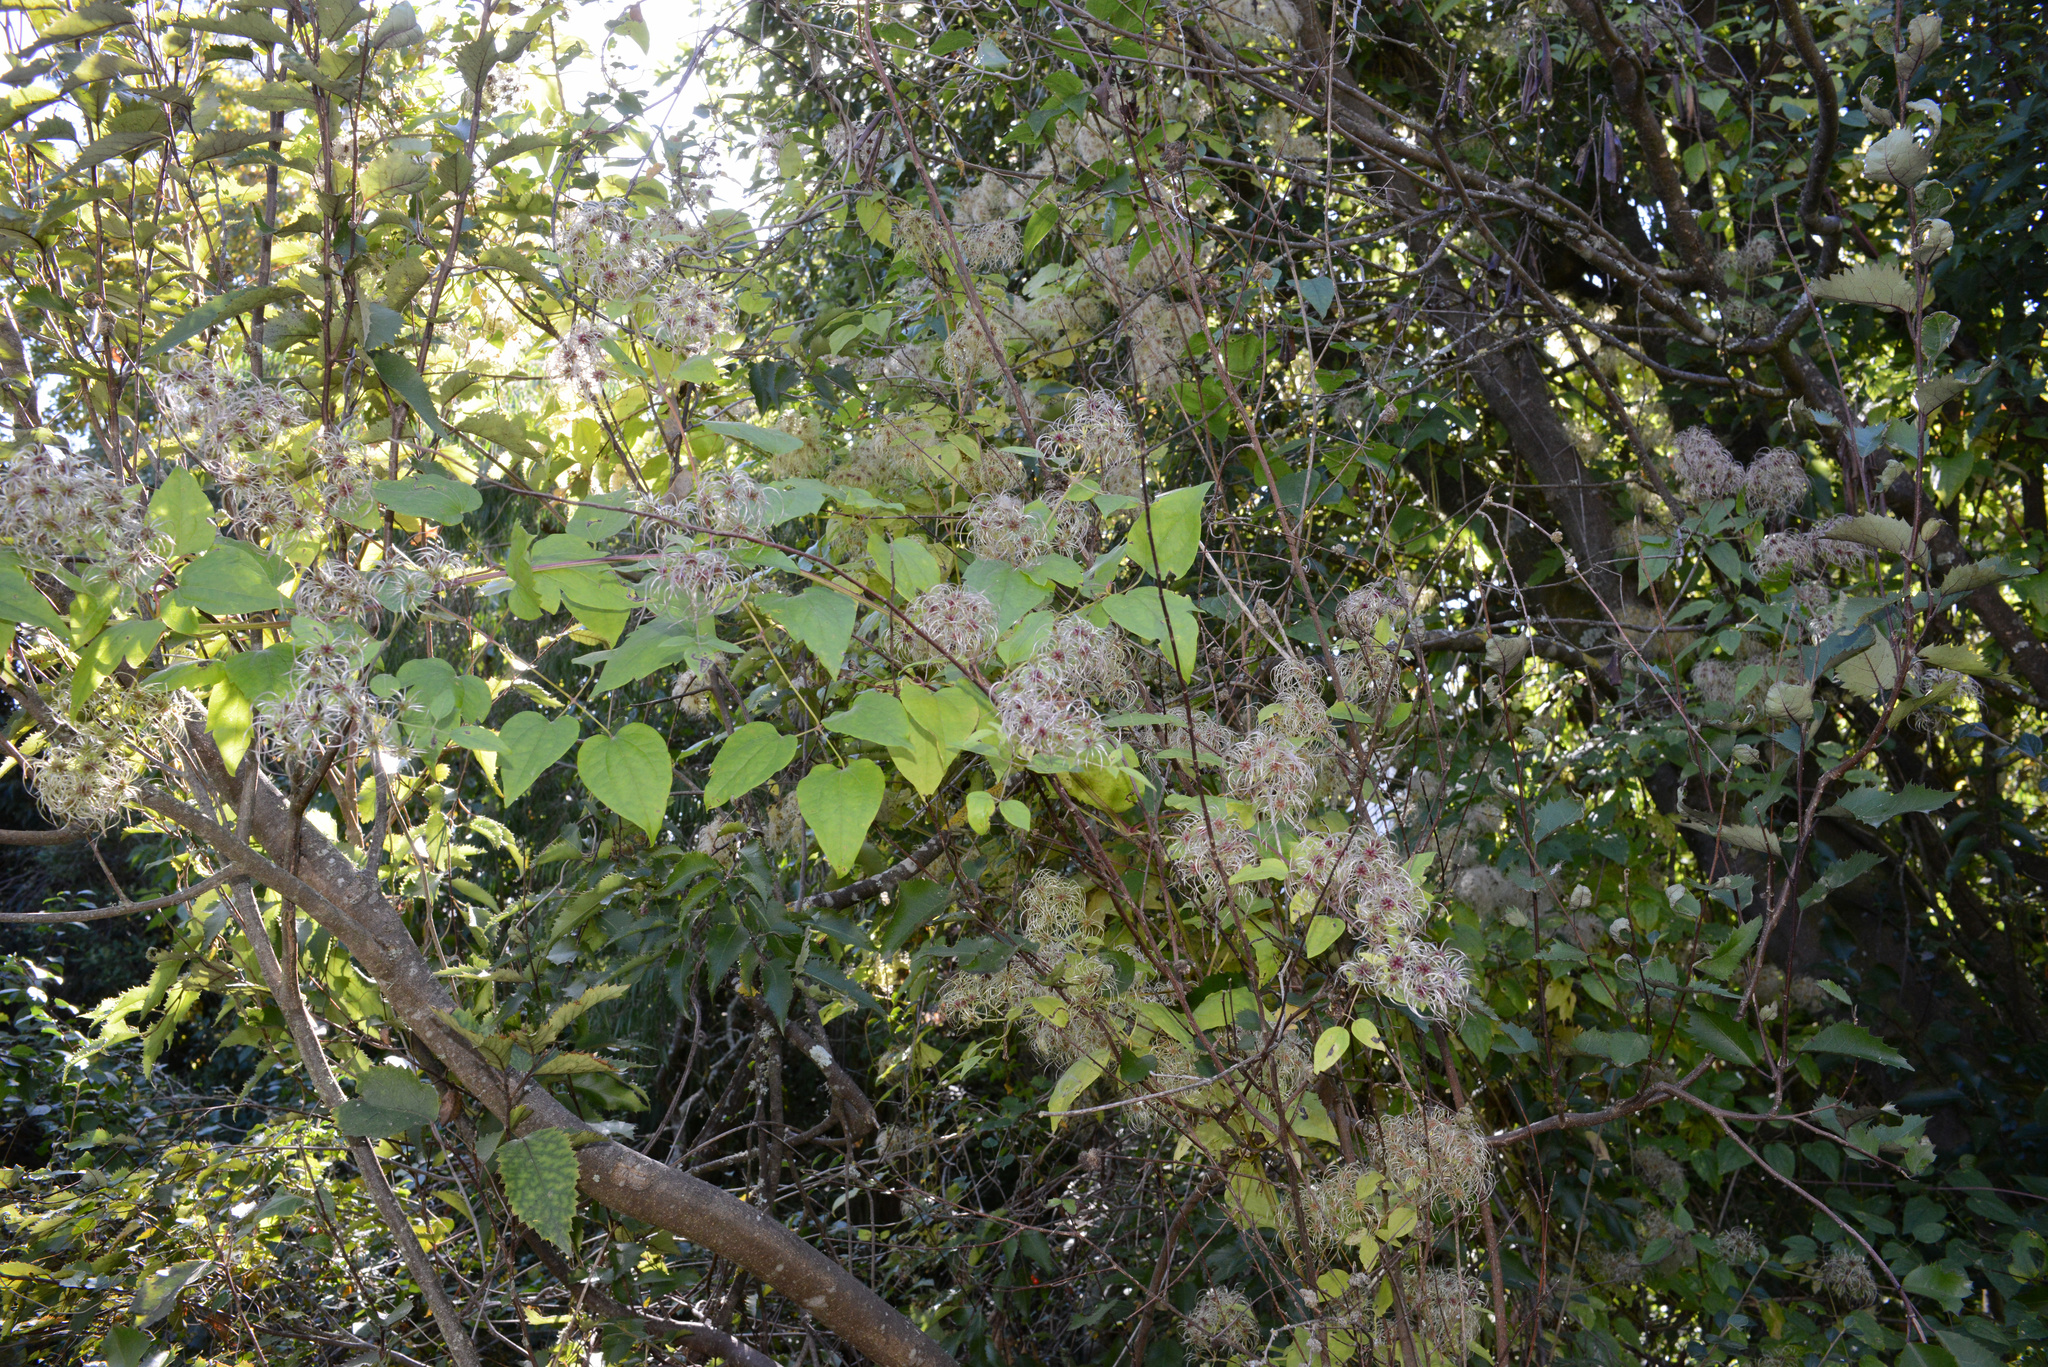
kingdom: Plantae
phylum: Tracheophyta
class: Magnoliopsida
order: Ranunculales
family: Ranunculaceae
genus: Clematis
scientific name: Clematis vitalba
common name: Evergreen clematis
